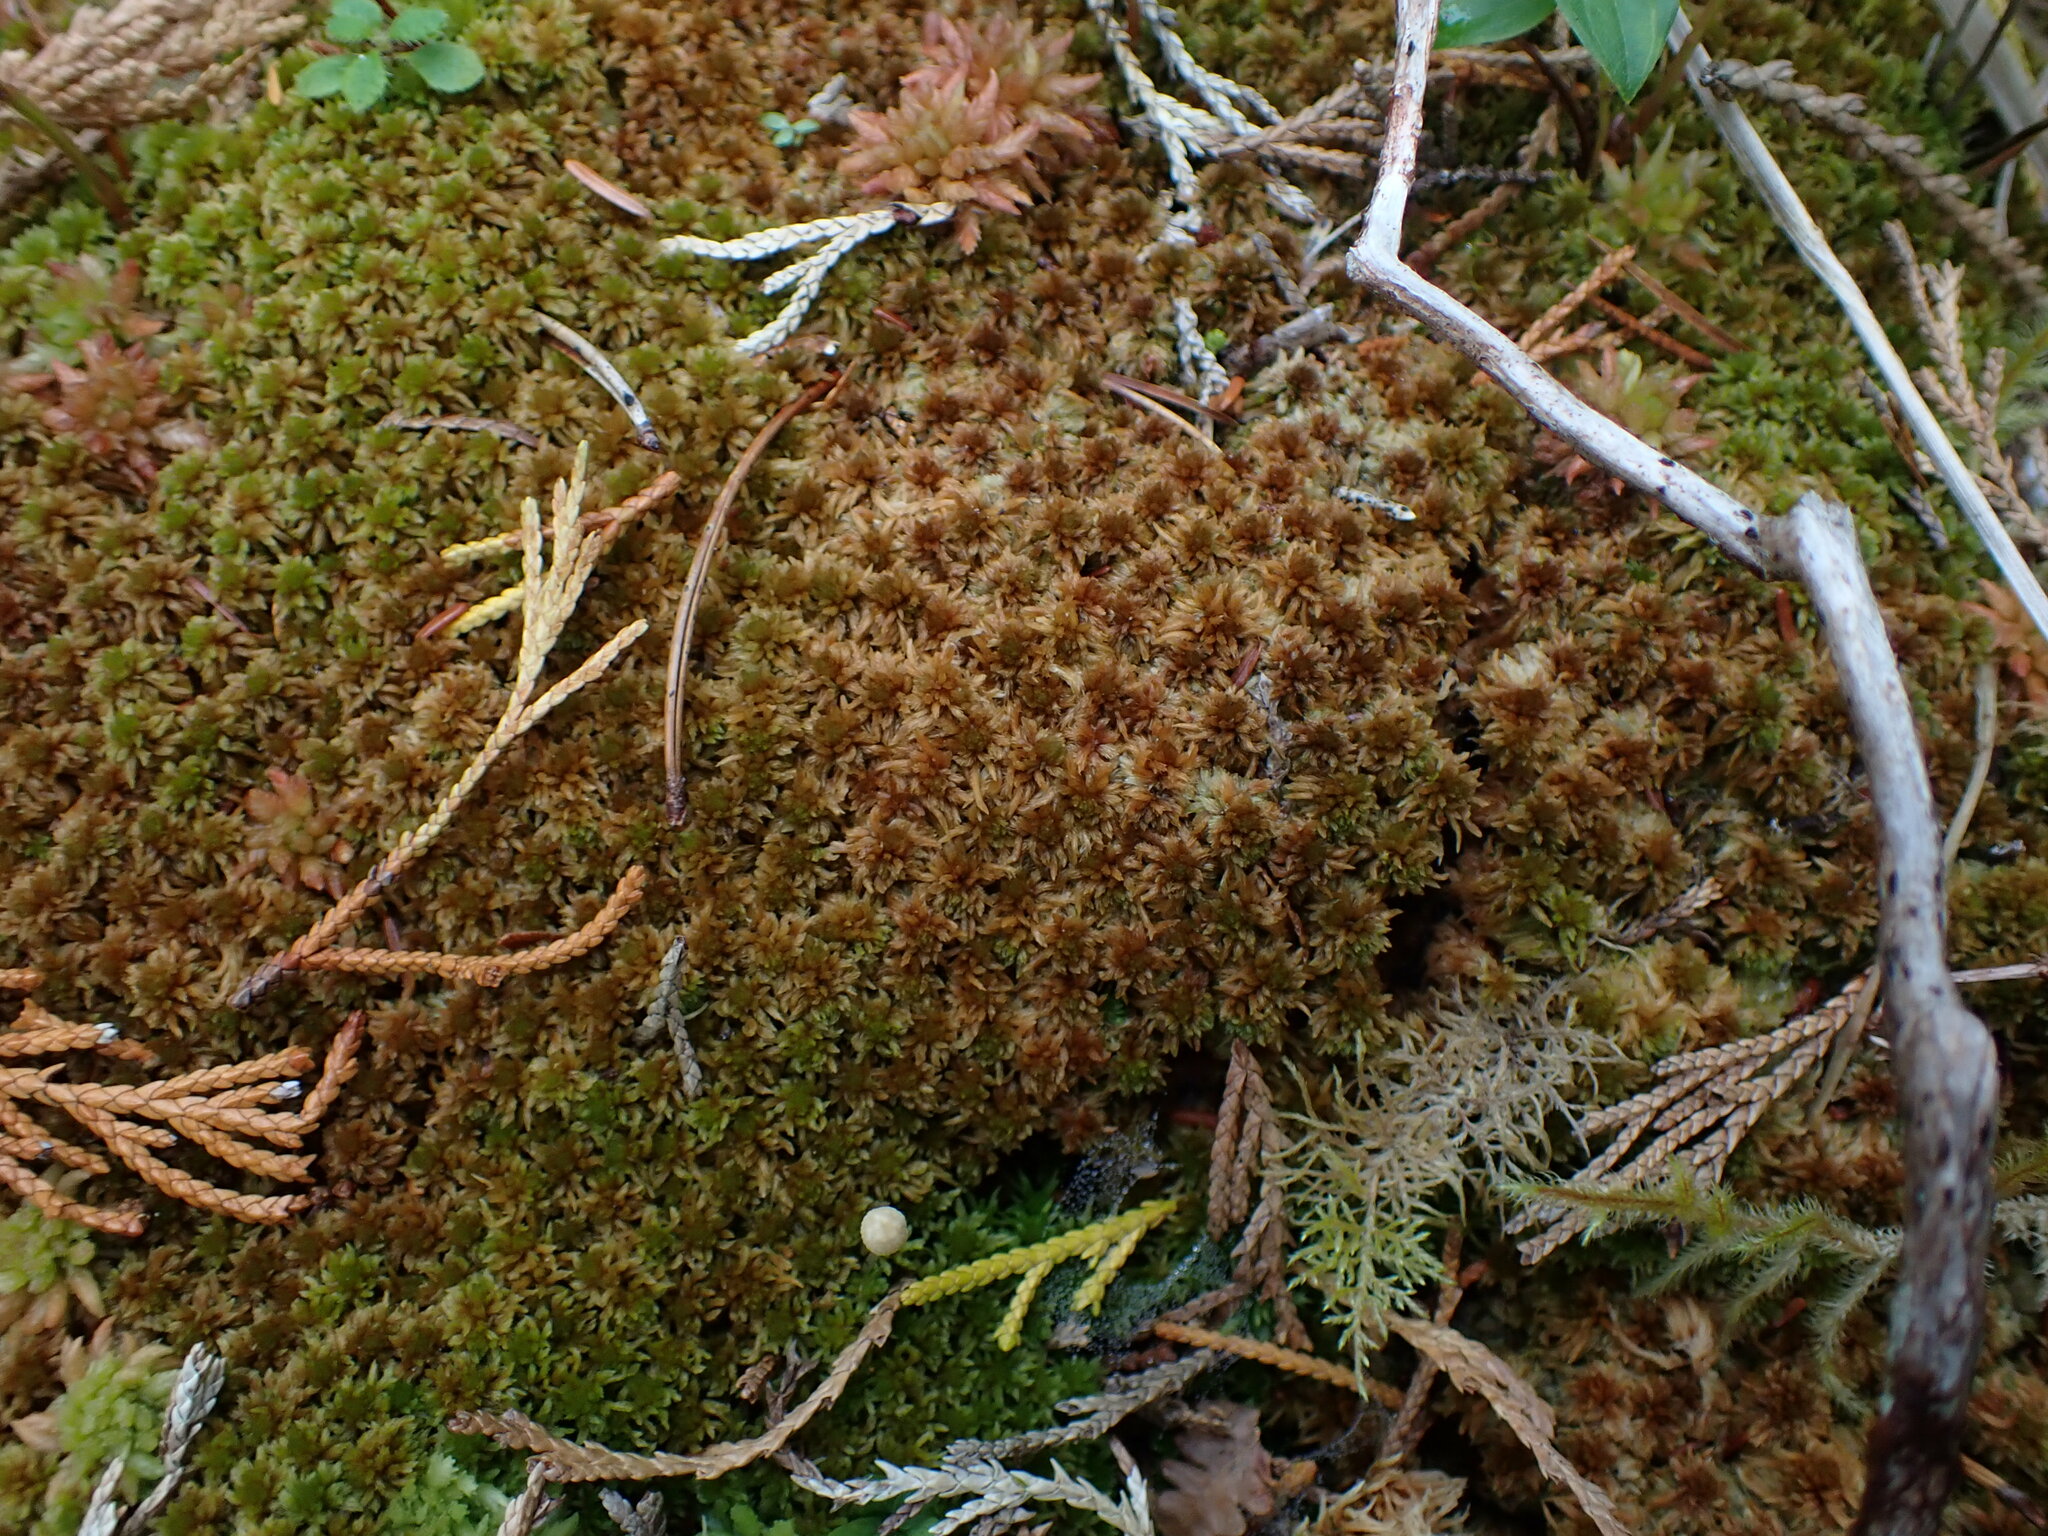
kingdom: Plantae
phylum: Bryophyta
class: Sphagnopsida
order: Sphagnales
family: Sphagnaceae
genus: Sphagnum
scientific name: Sphagnum fuscum
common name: Brown peat moss
